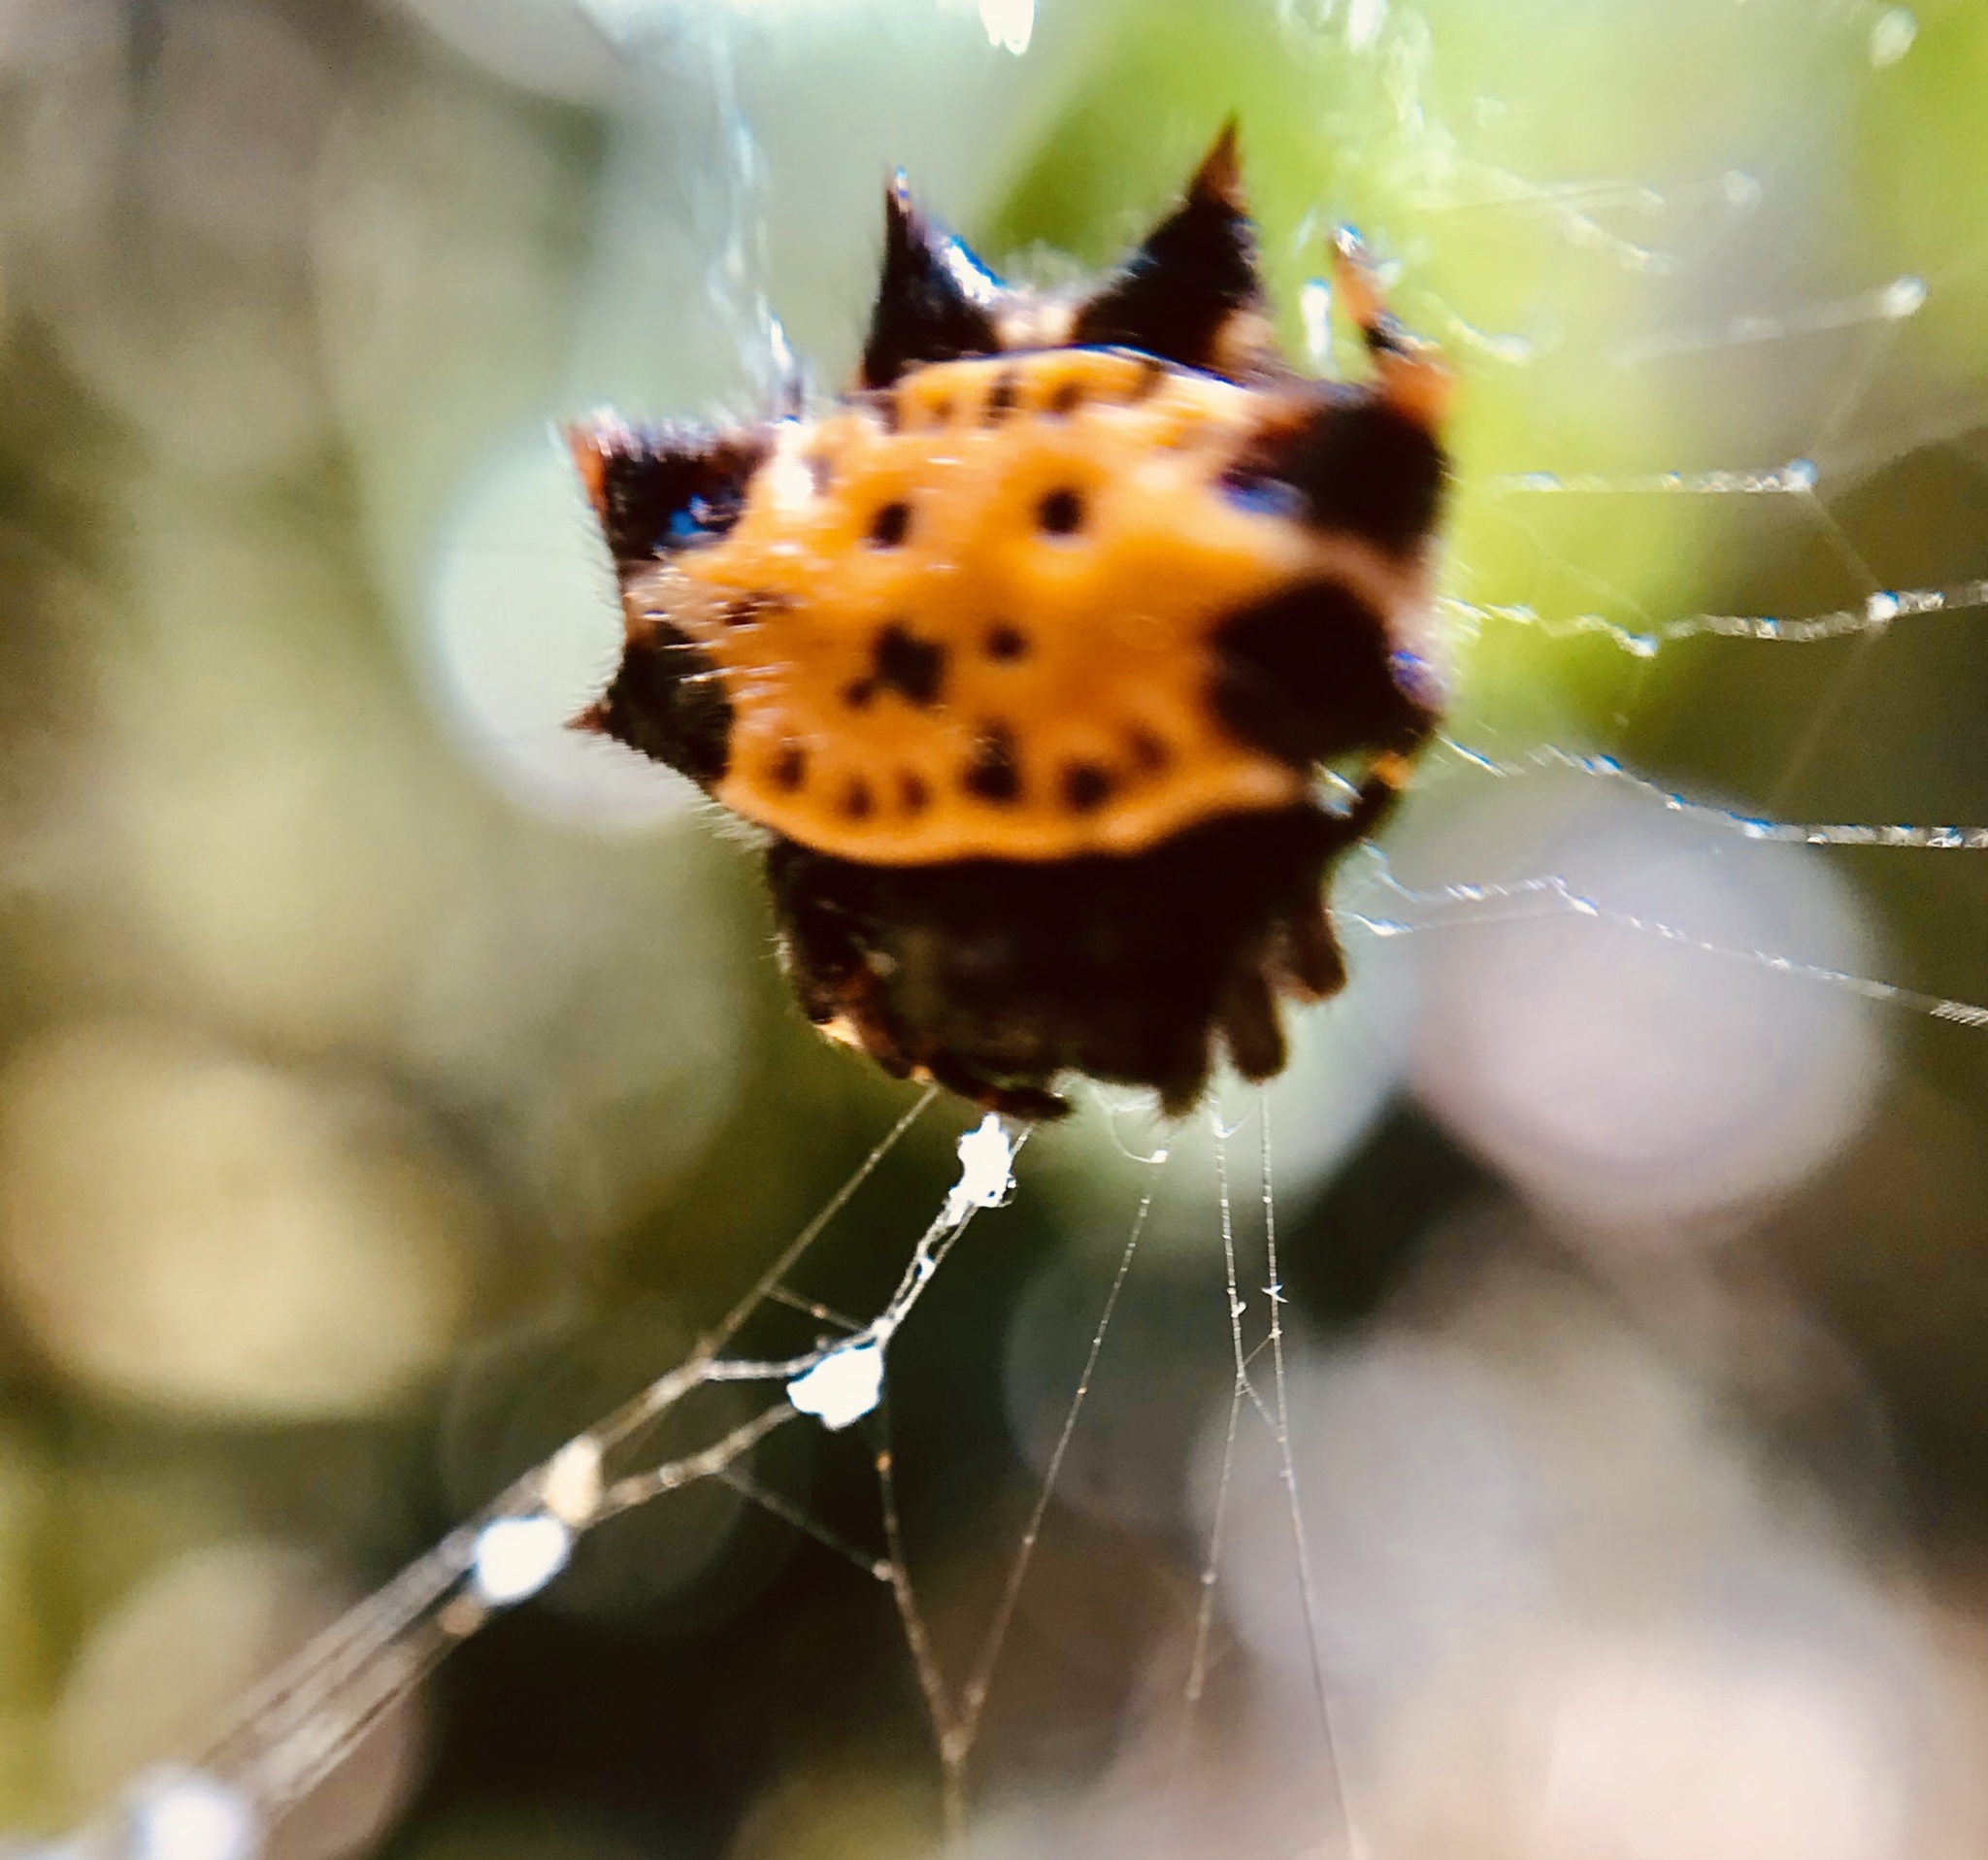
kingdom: Animalia
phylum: Arthropoda
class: Arachnida
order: Araneae
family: Araneidae
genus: Gasteracantha
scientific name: Gasteracantha cancriformis
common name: Orb weavers
